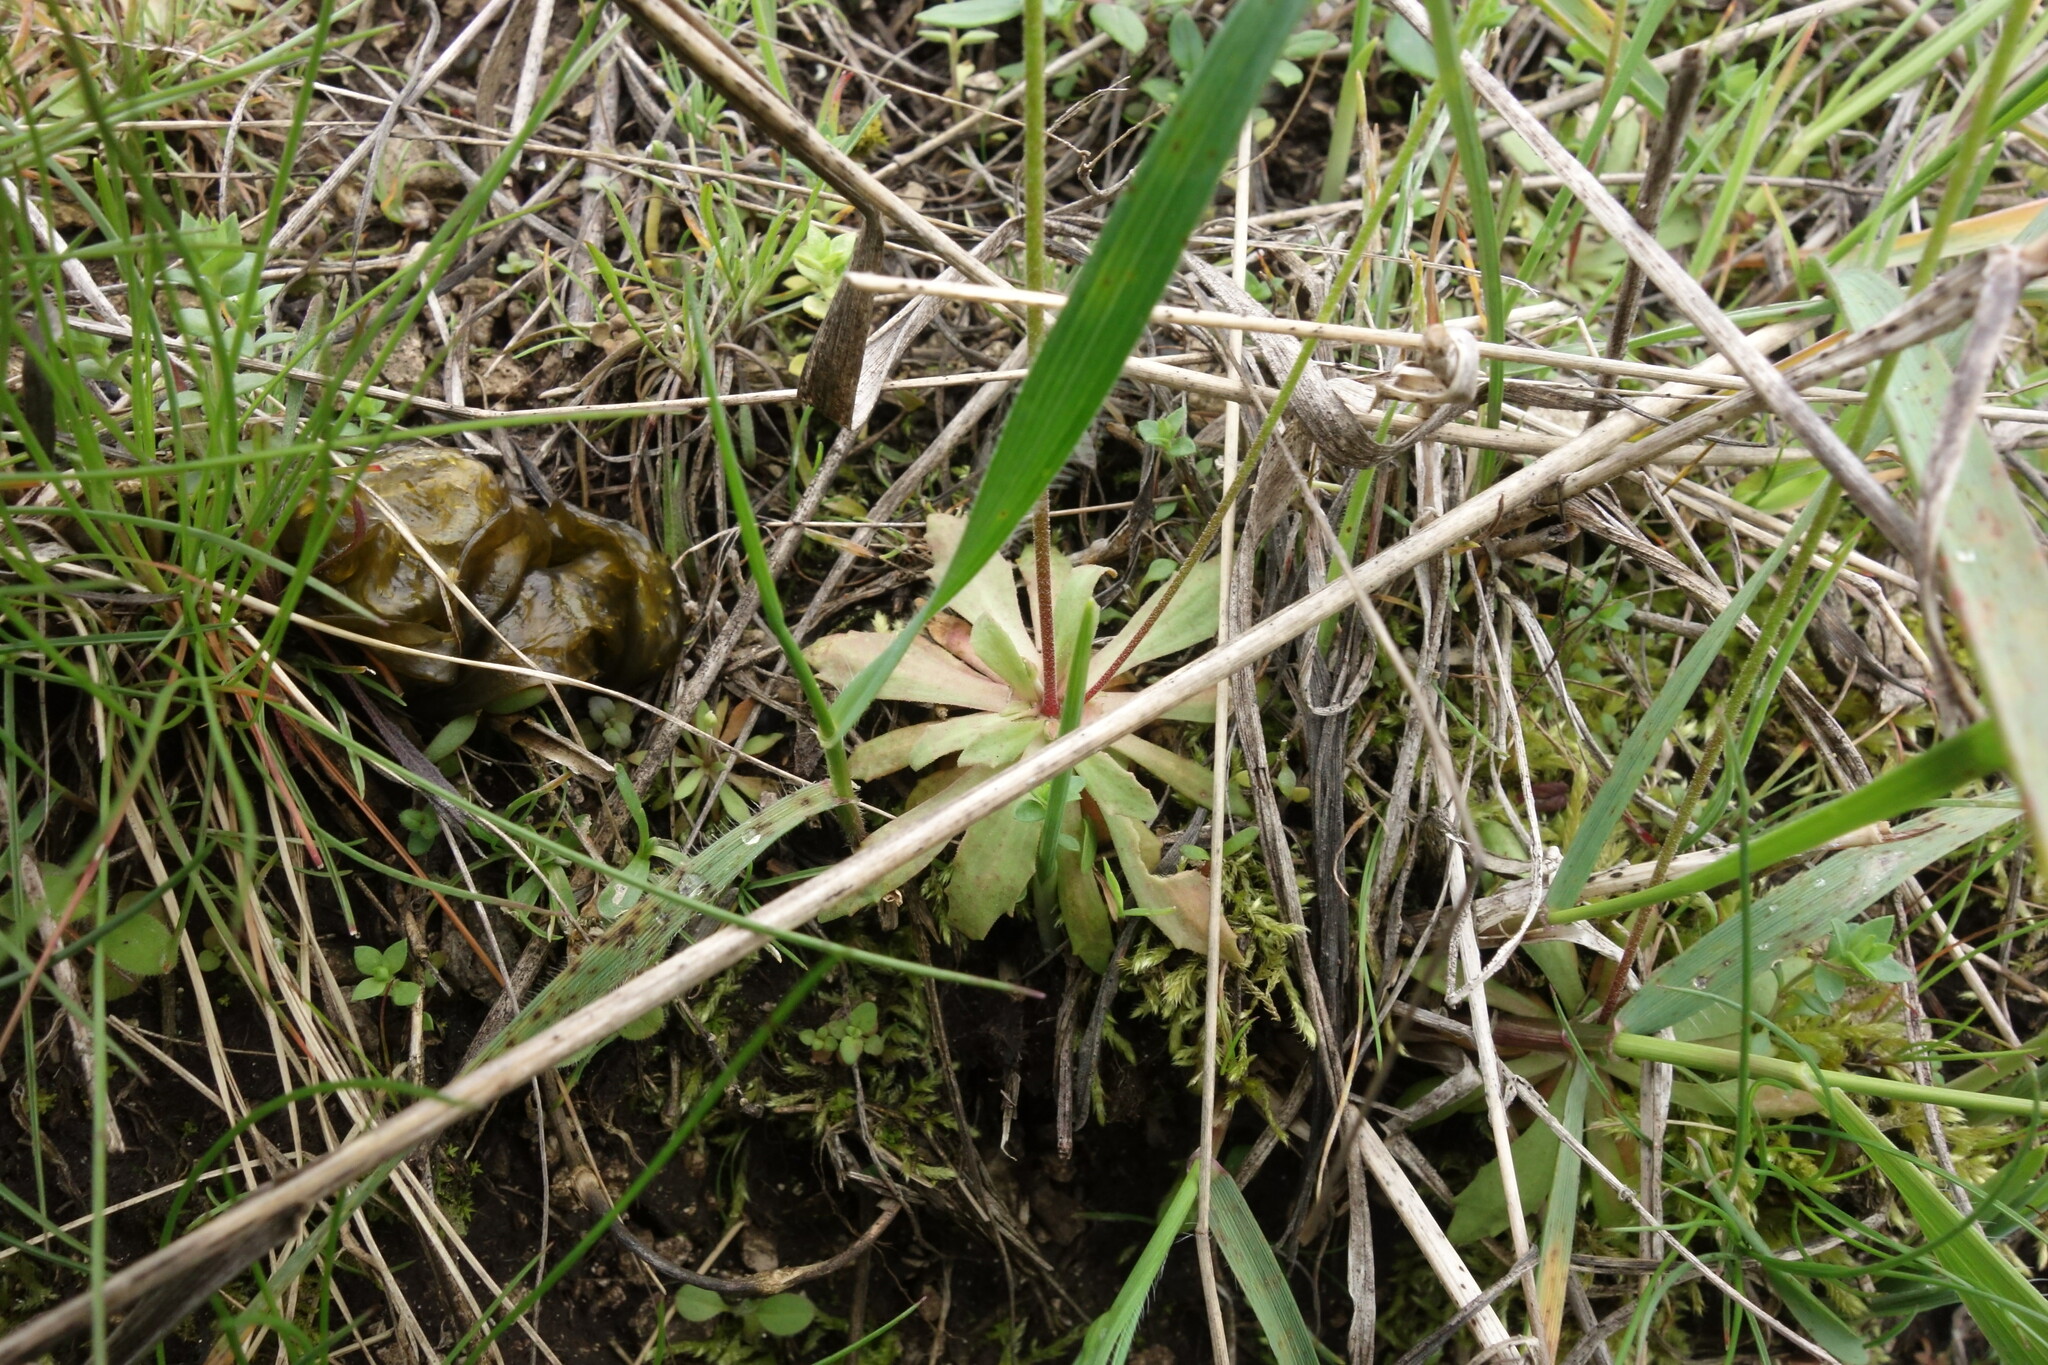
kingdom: Plantae
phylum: Tracheophyta
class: Magnoliopsida
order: Ericales
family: Primulaceae
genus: Androsace
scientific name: Androsace septentrionalis
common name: Hairy northern fairy-candelabra
